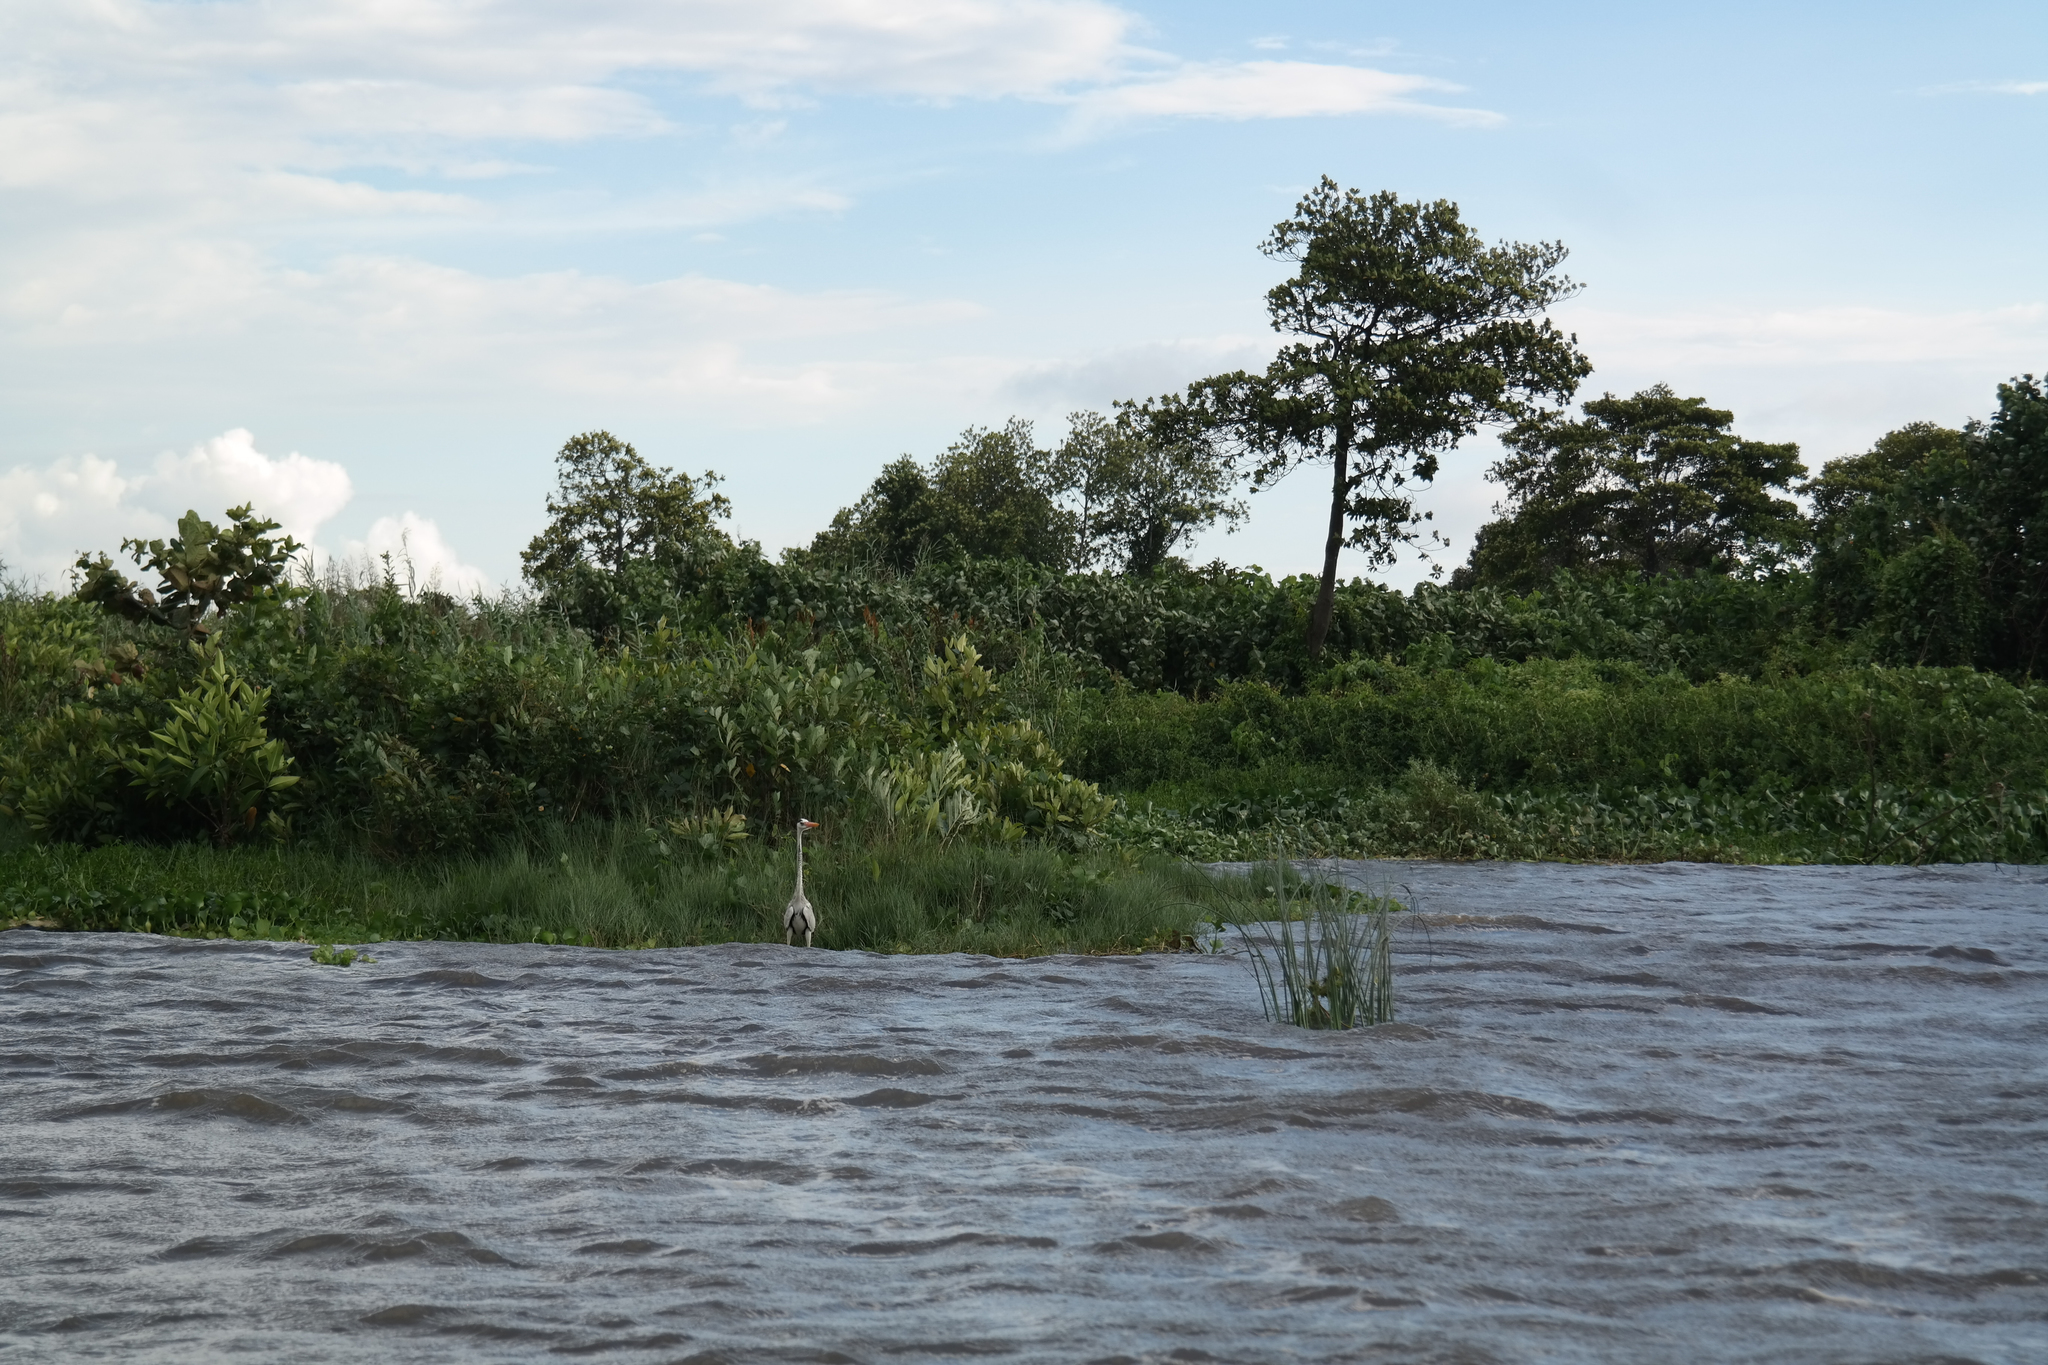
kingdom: Animalia
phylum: Chordata
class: Aves
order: Pelecaniformes
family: Ardeidae
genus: Ardea
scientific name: Ardea cinerea
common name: Grey heron
